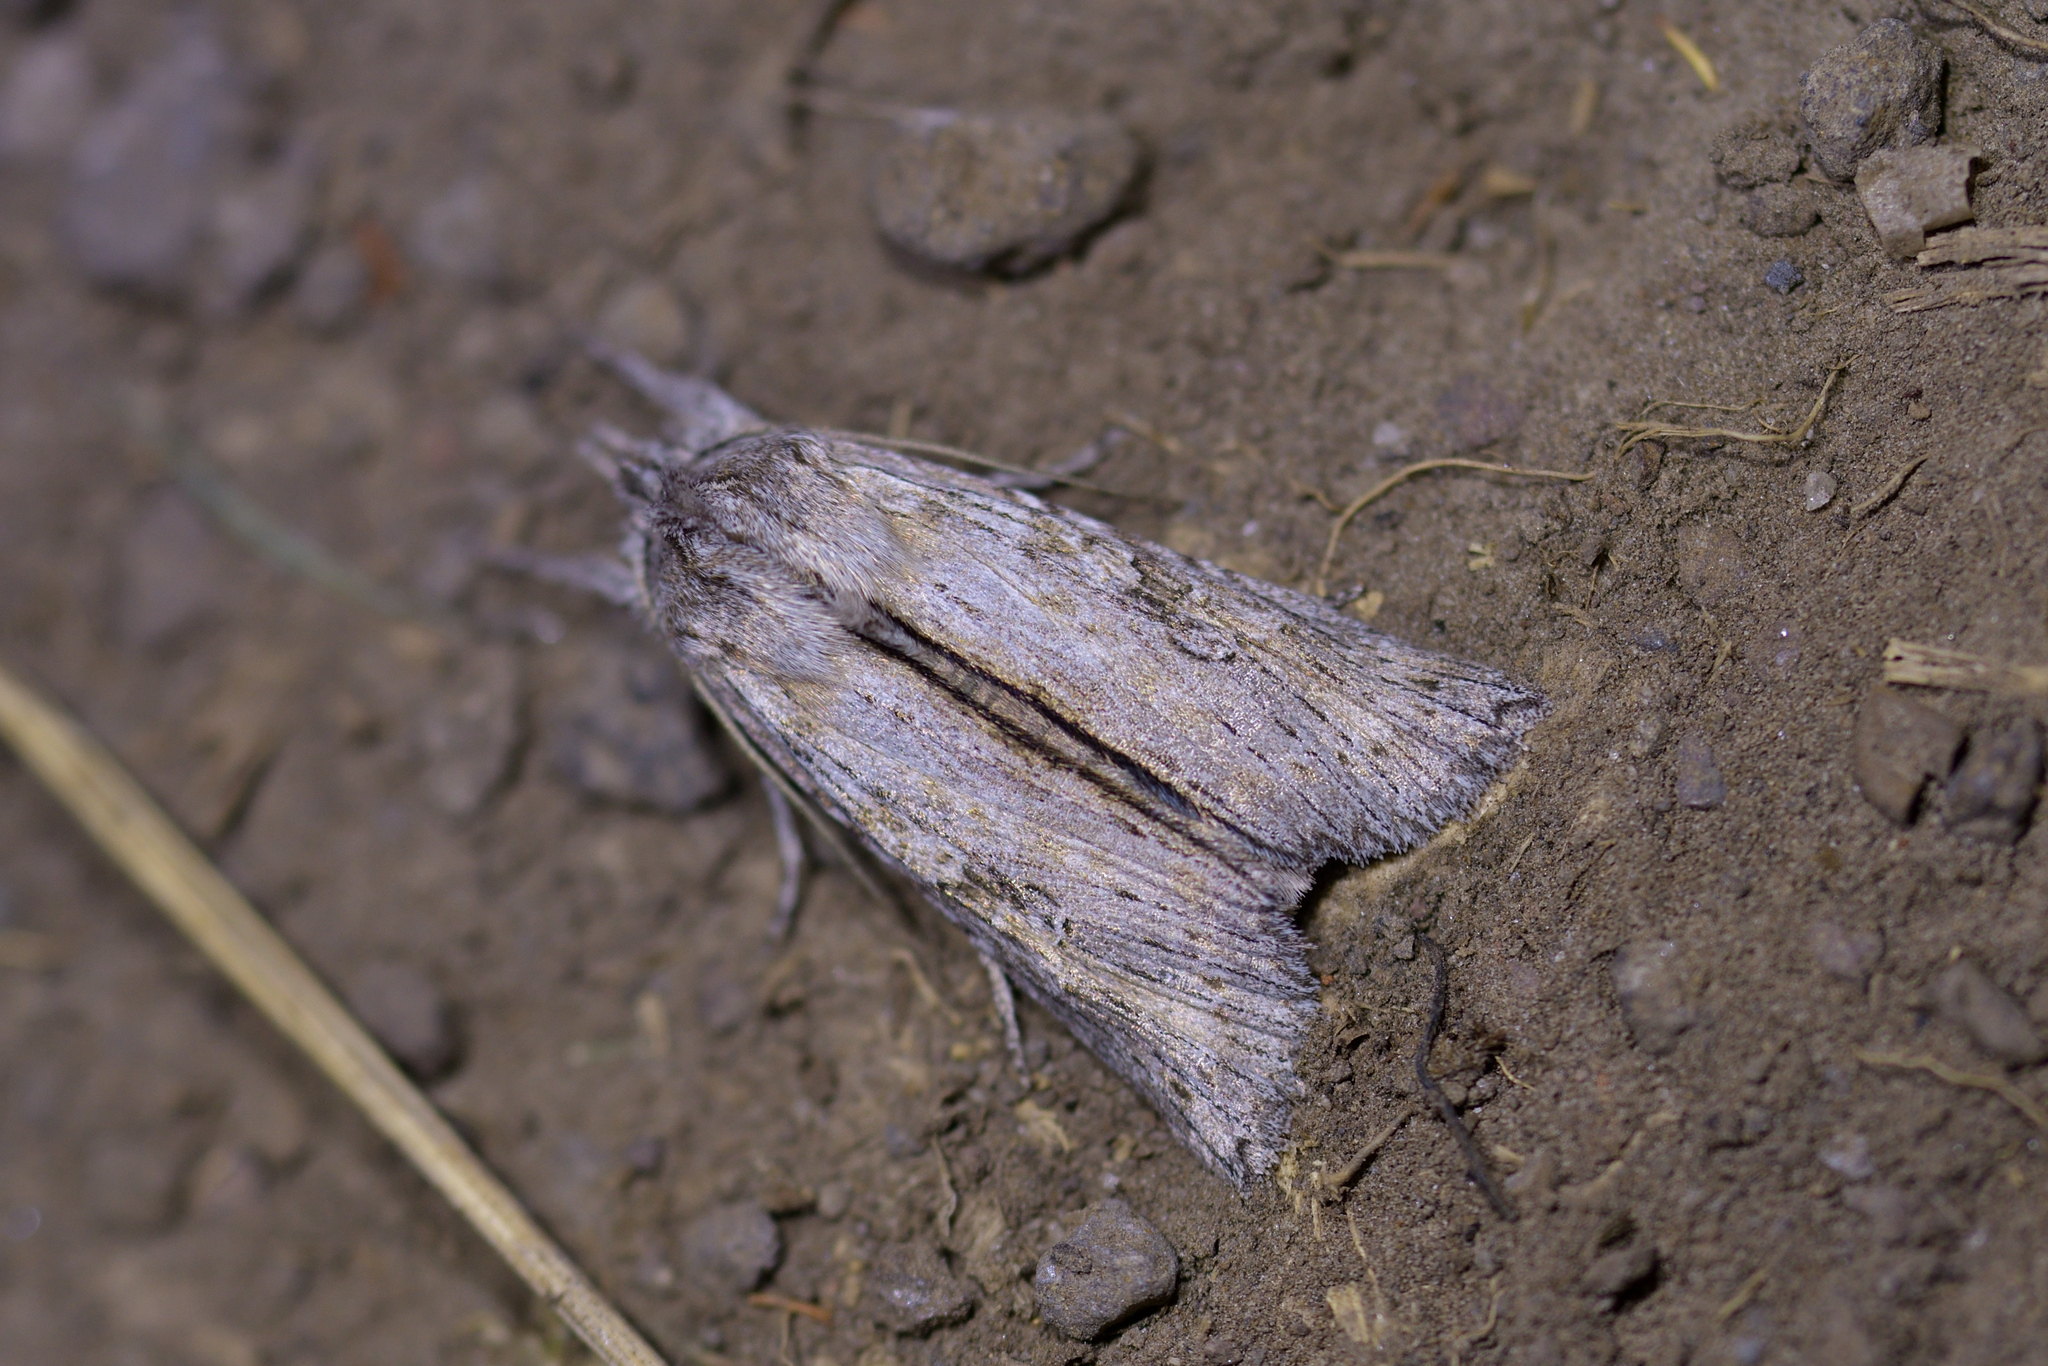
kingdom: Animalia
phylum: Arthropoda
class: Insecta
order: Lepidoptera
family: Noctuidae
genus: Physetica
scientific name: Physetica phricias
